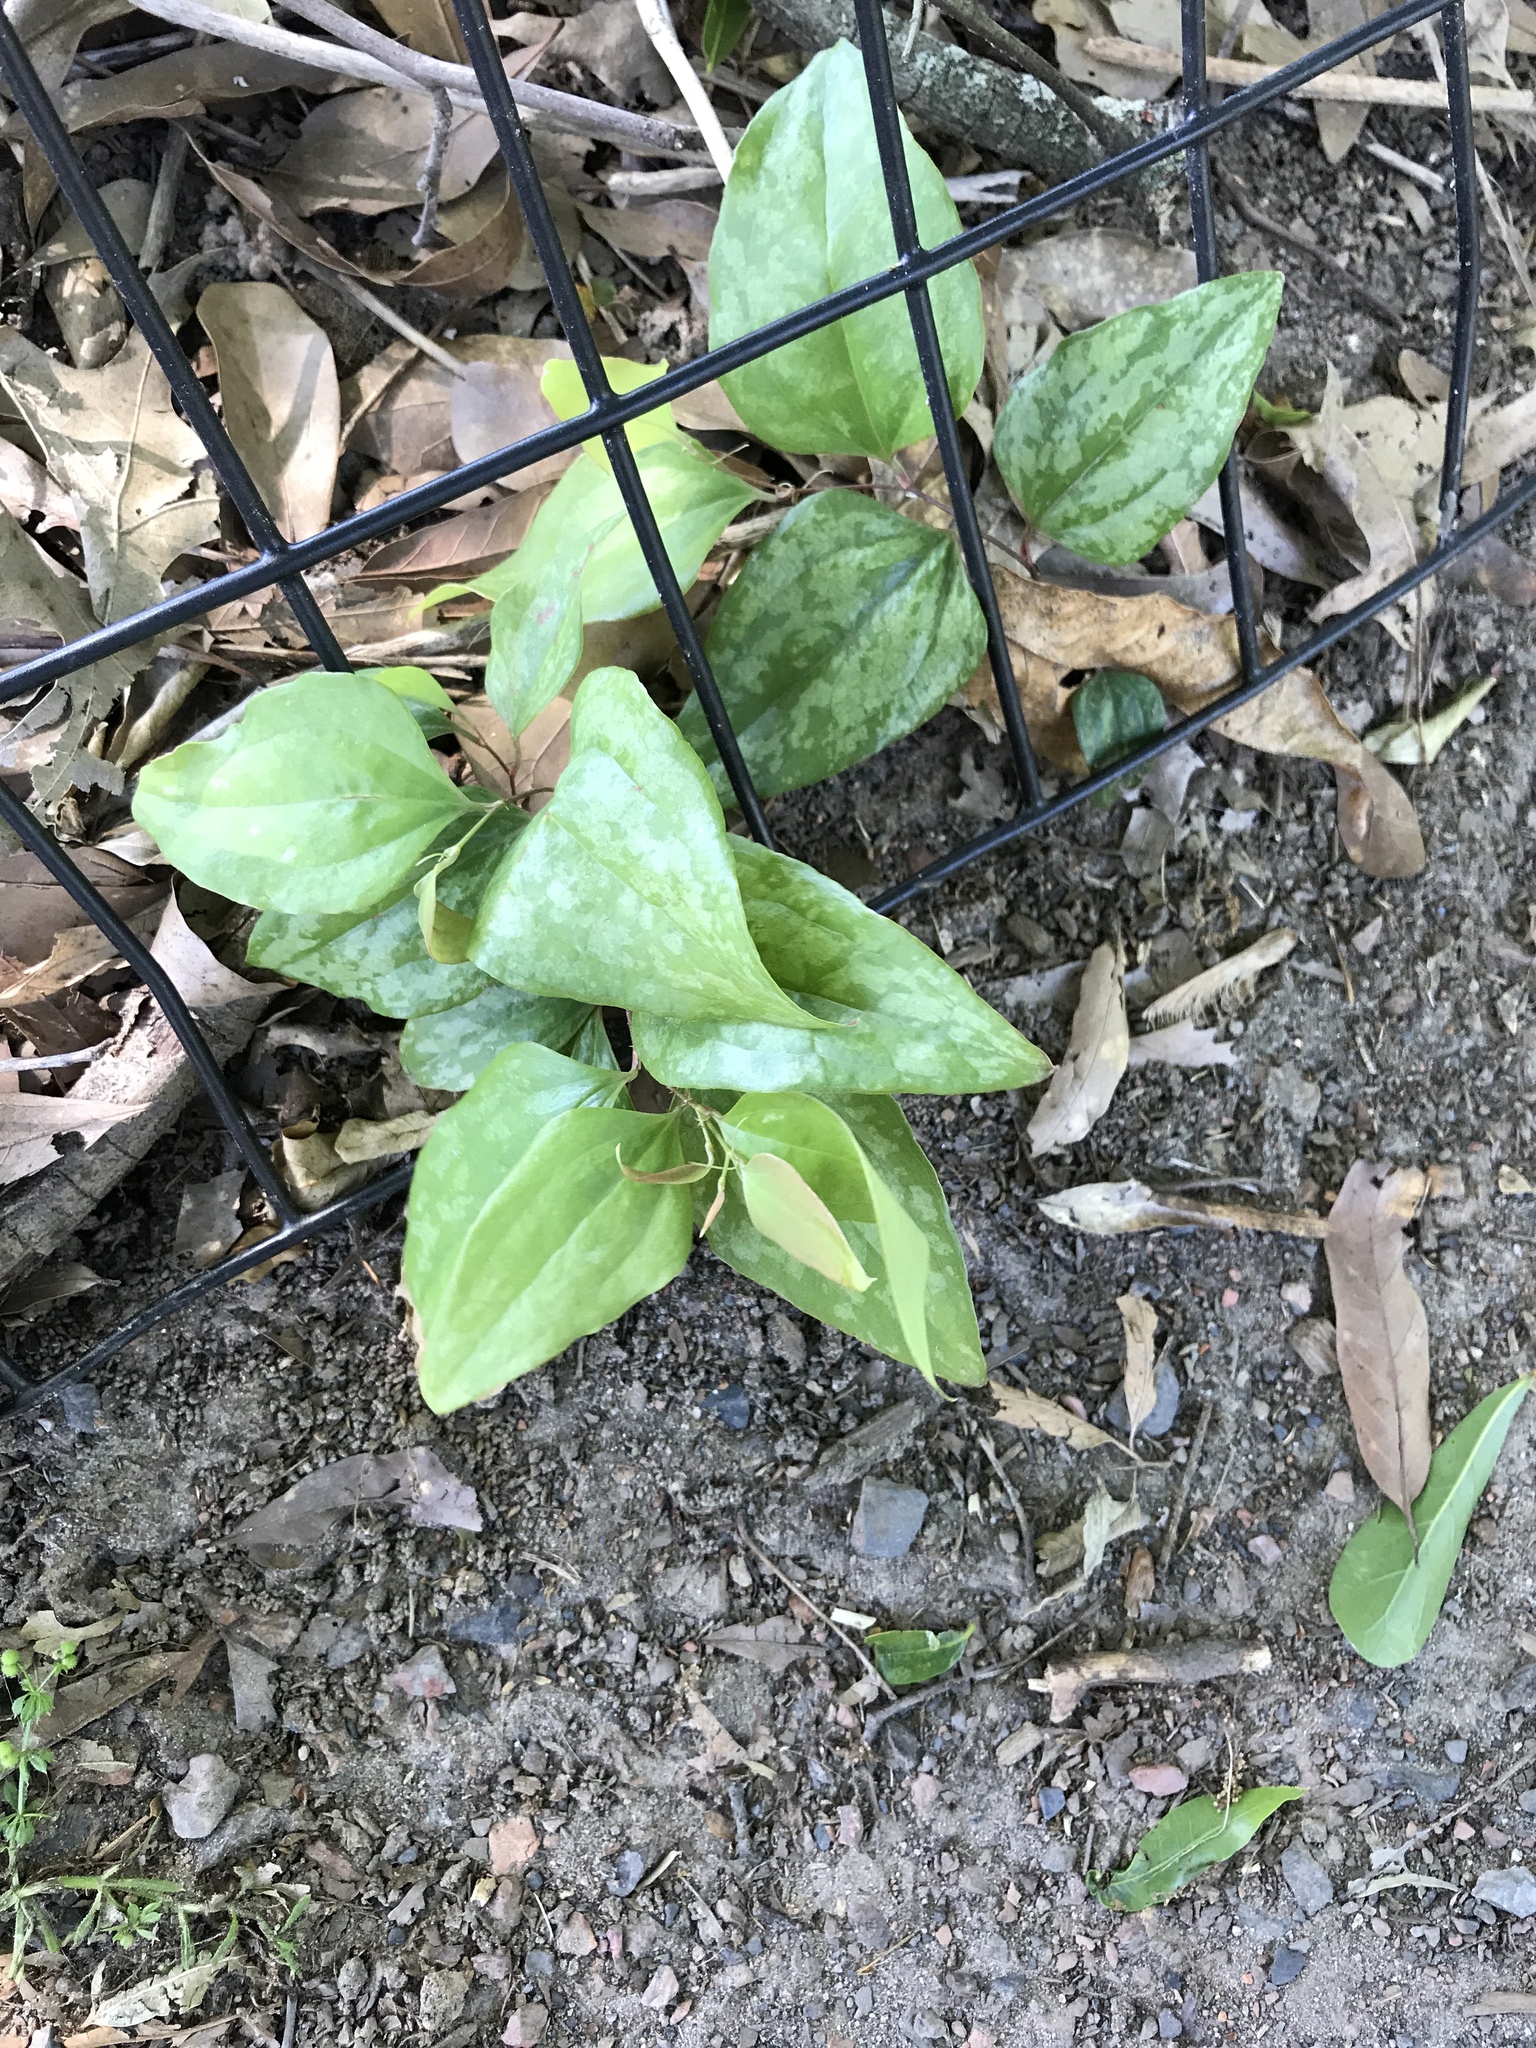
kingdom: Plantae
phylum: Tracheophyta
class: Liliopsida
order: Liliales
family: Smilacaceae
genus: Smilax
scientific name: Smilax maritima
